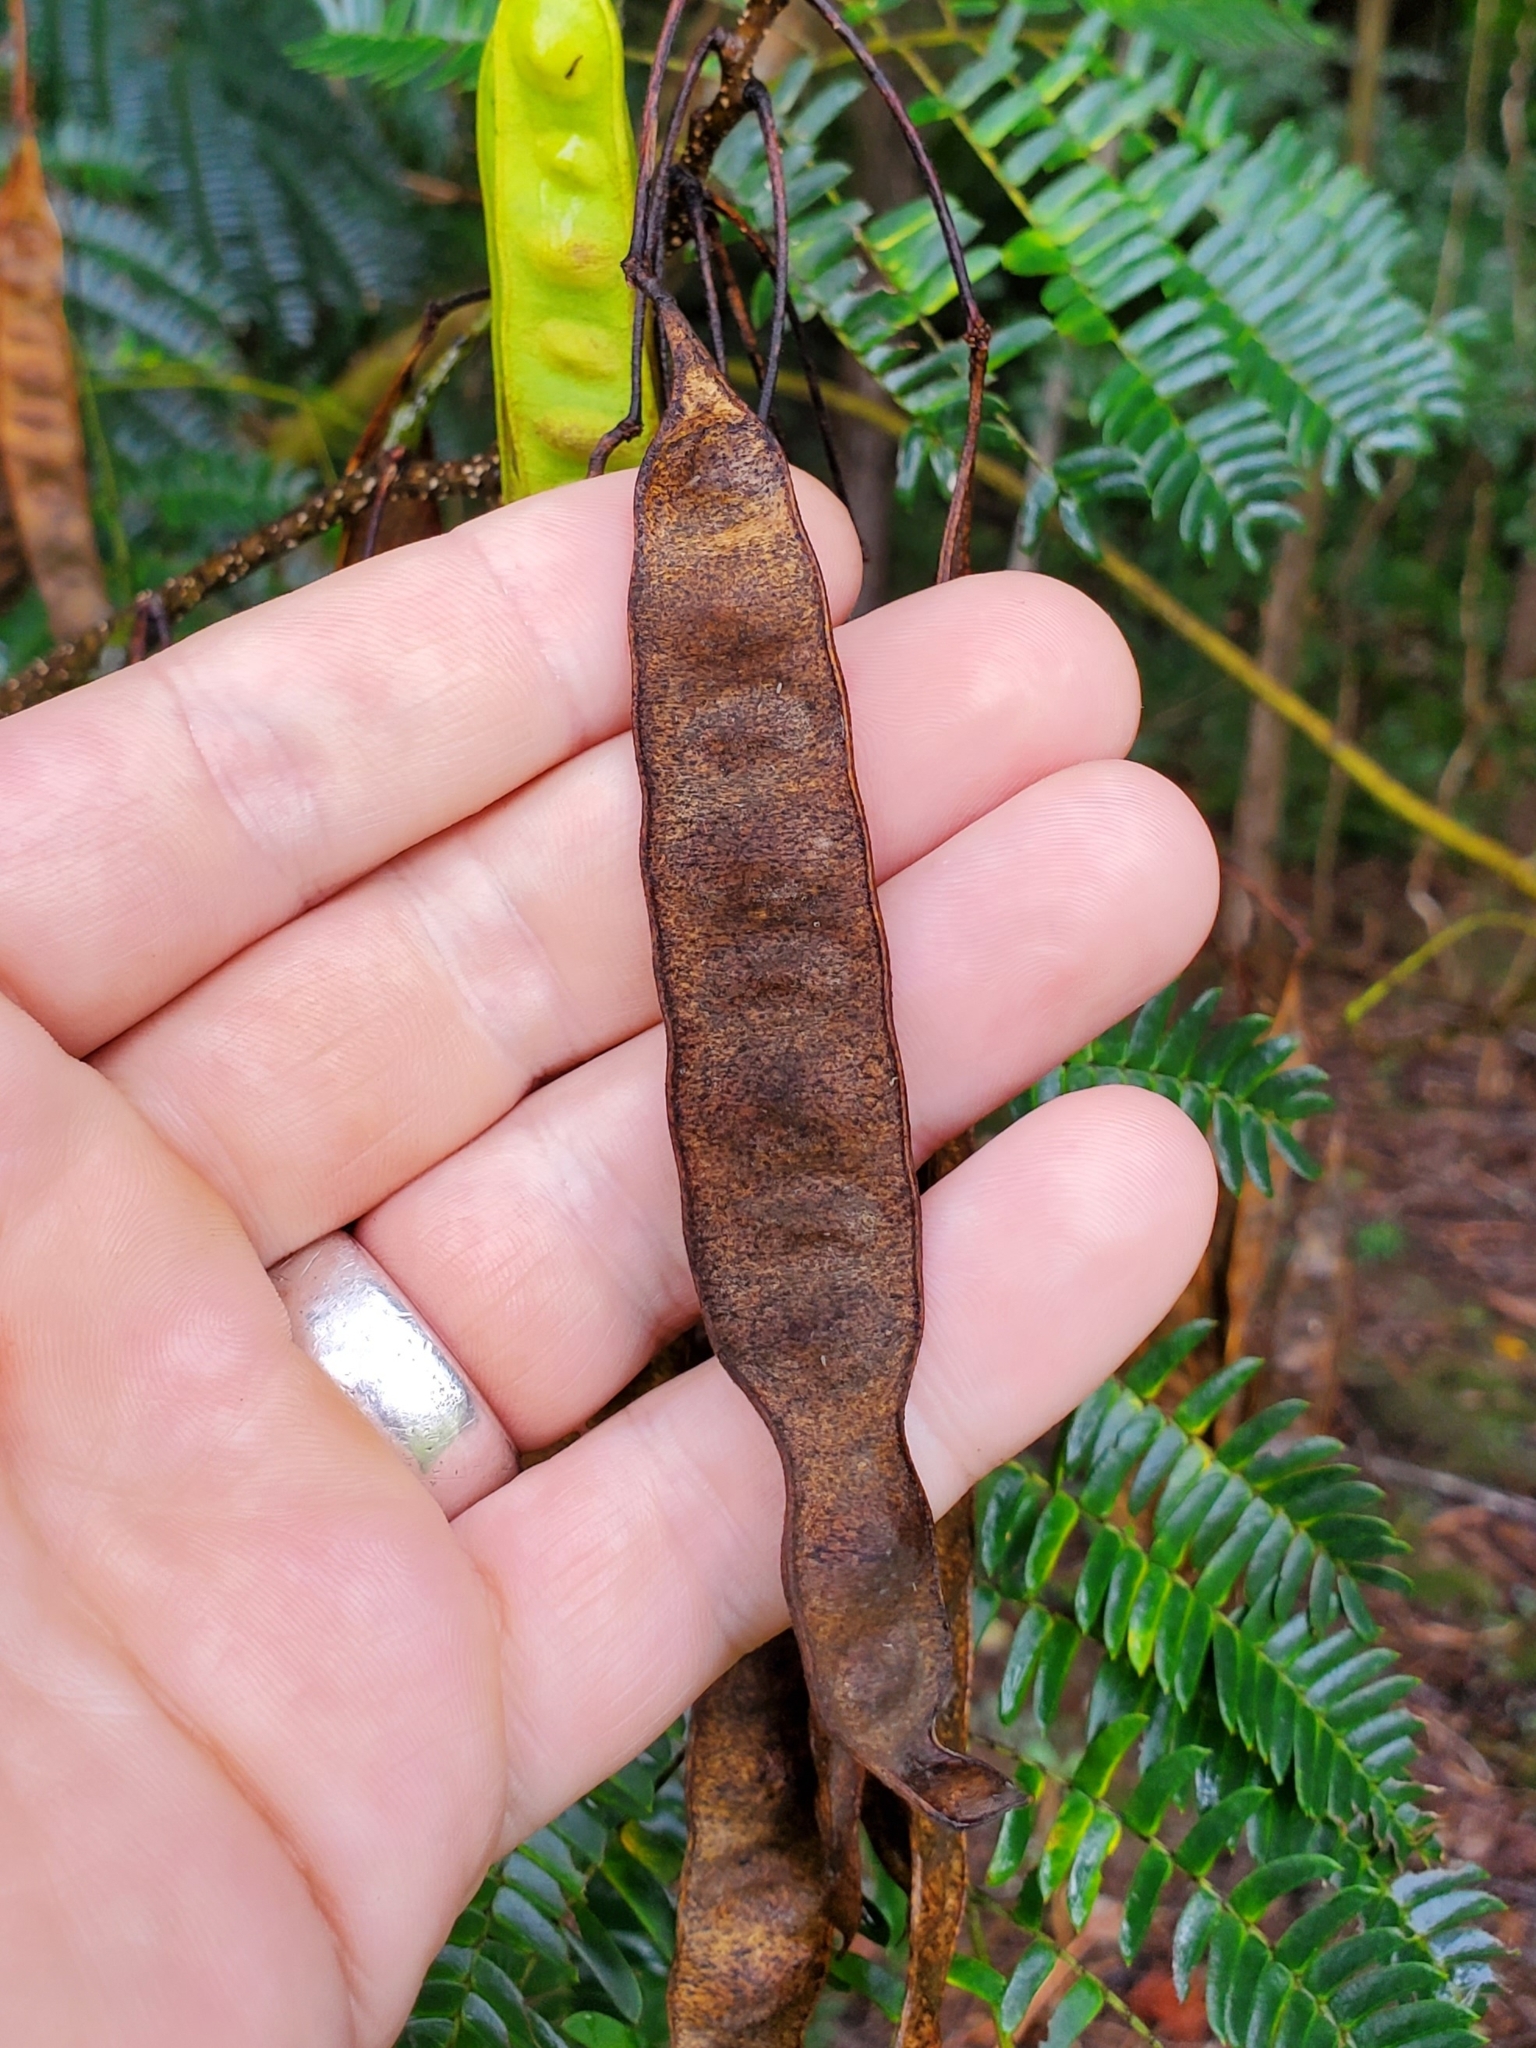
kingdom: Plantae
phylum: Tracheophyta
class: Magnoliopsida
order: Fabales
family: Fabaceae
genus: Albizia
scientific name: Albizia julibrissin
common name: Silktree
